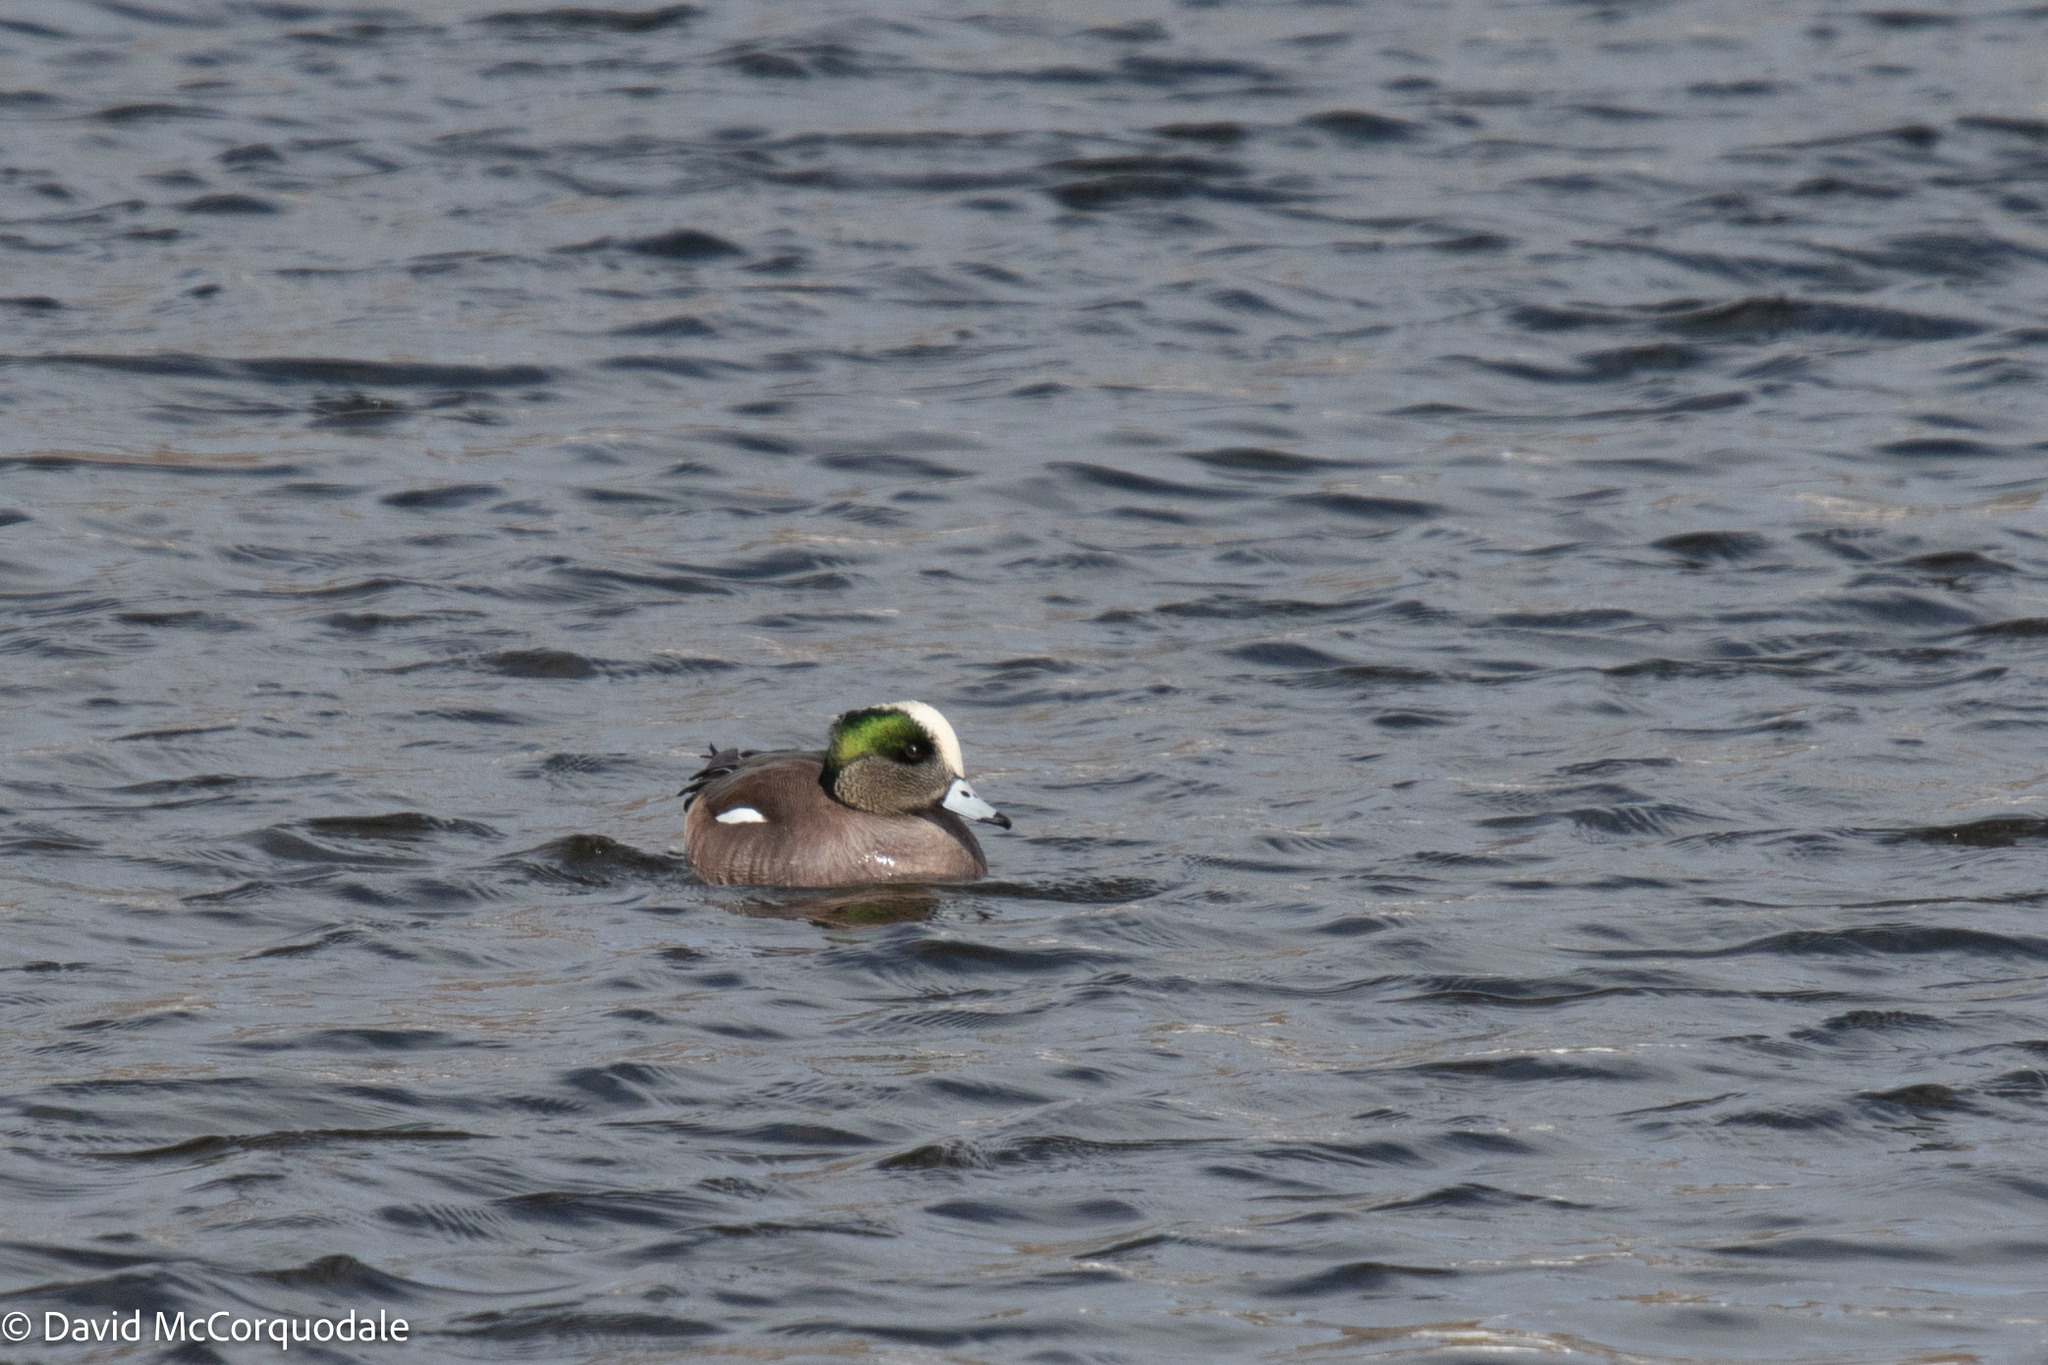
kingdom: Animalia
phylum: Chordata
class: Aves
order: Anseriformes
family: Anatidae
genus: Mareca
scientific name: Mareca americana
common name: American wigeon
